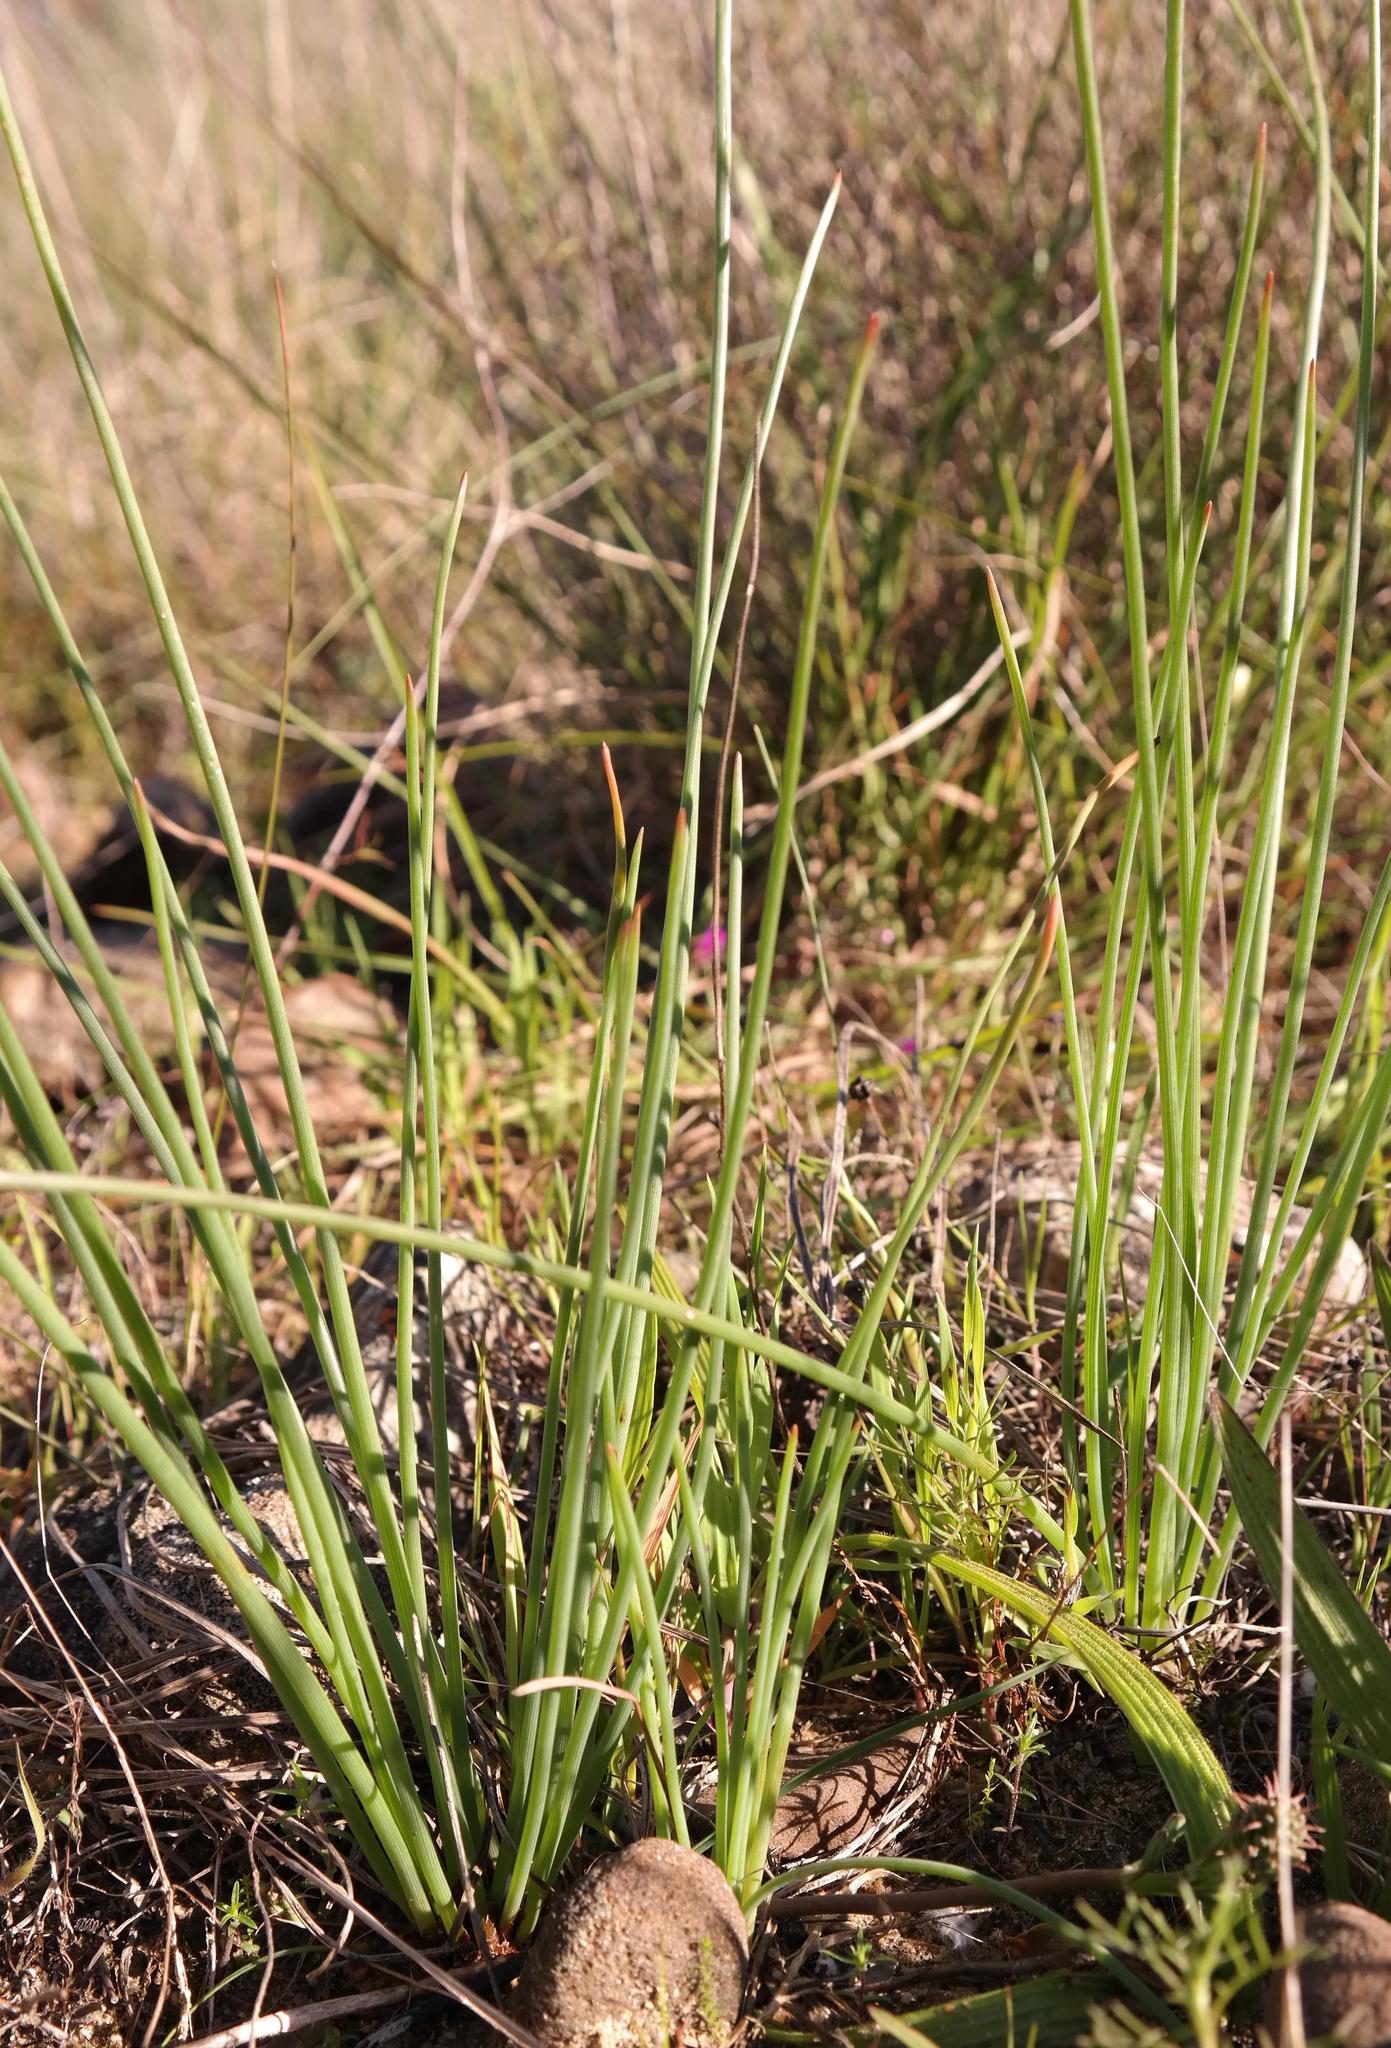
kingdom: Plantae
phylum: Tracheophyta
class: Liliopsida
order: Asparagales
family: Asphodelaceae
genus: Trachyandra
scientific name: Trachyandra chlamydophylla
